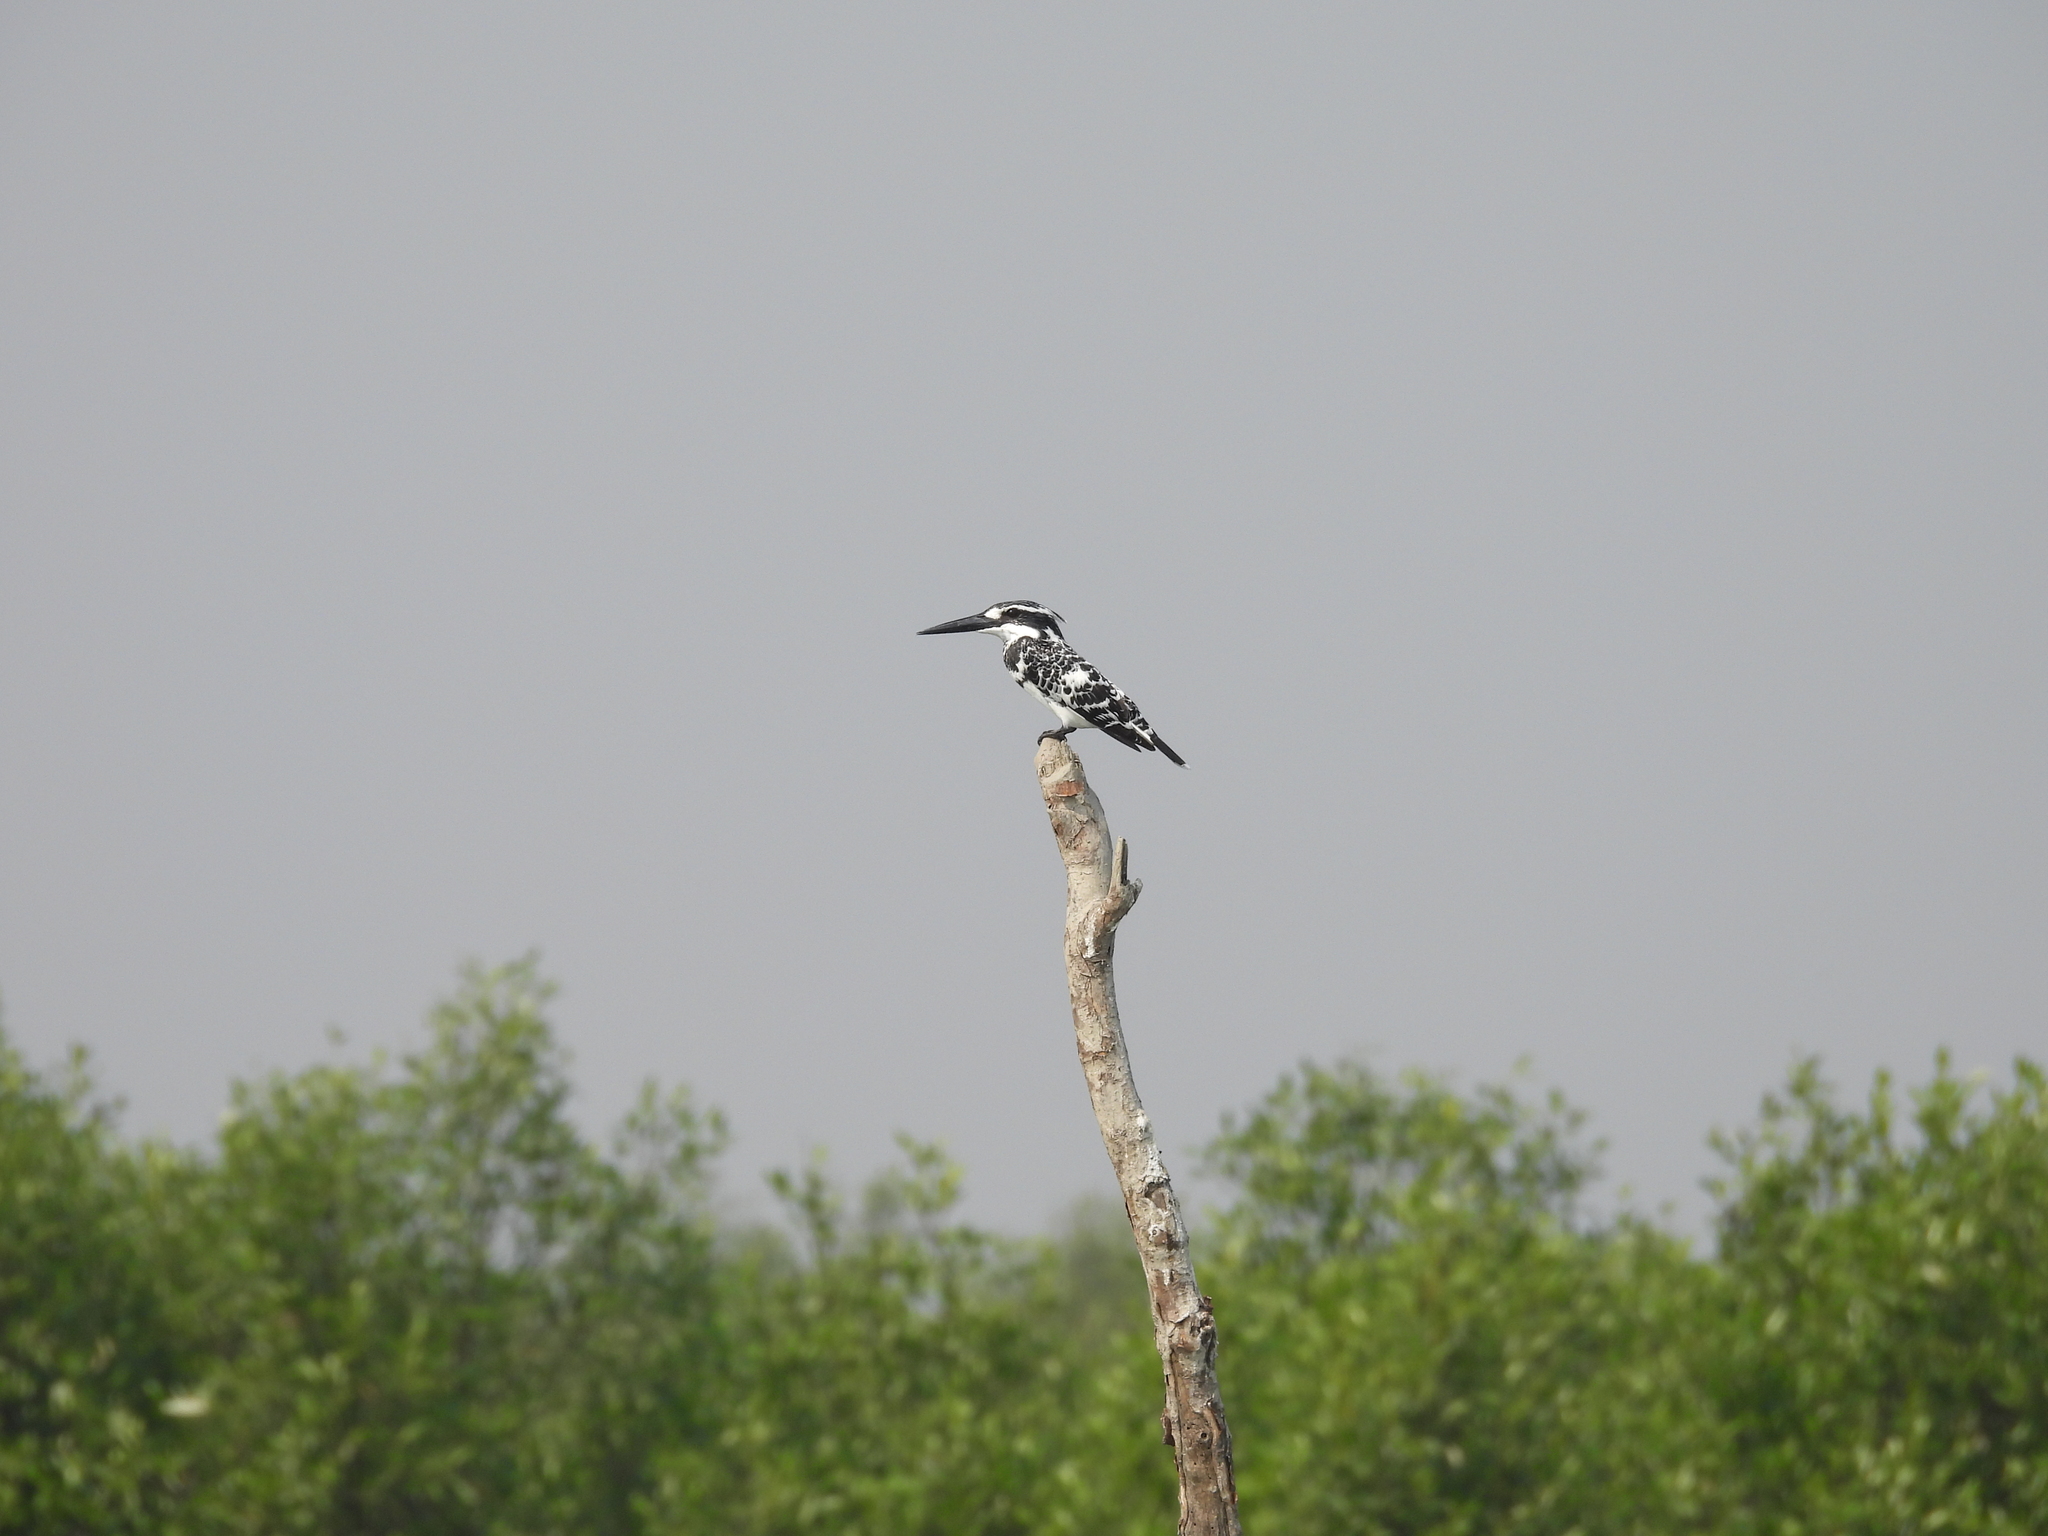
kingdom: Animalia
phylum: Chordata
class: Aves
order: Coraciiformes
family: Alcedinidae
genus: Ceryle
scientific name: Ceryle rudis
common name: Pied kingfisher
